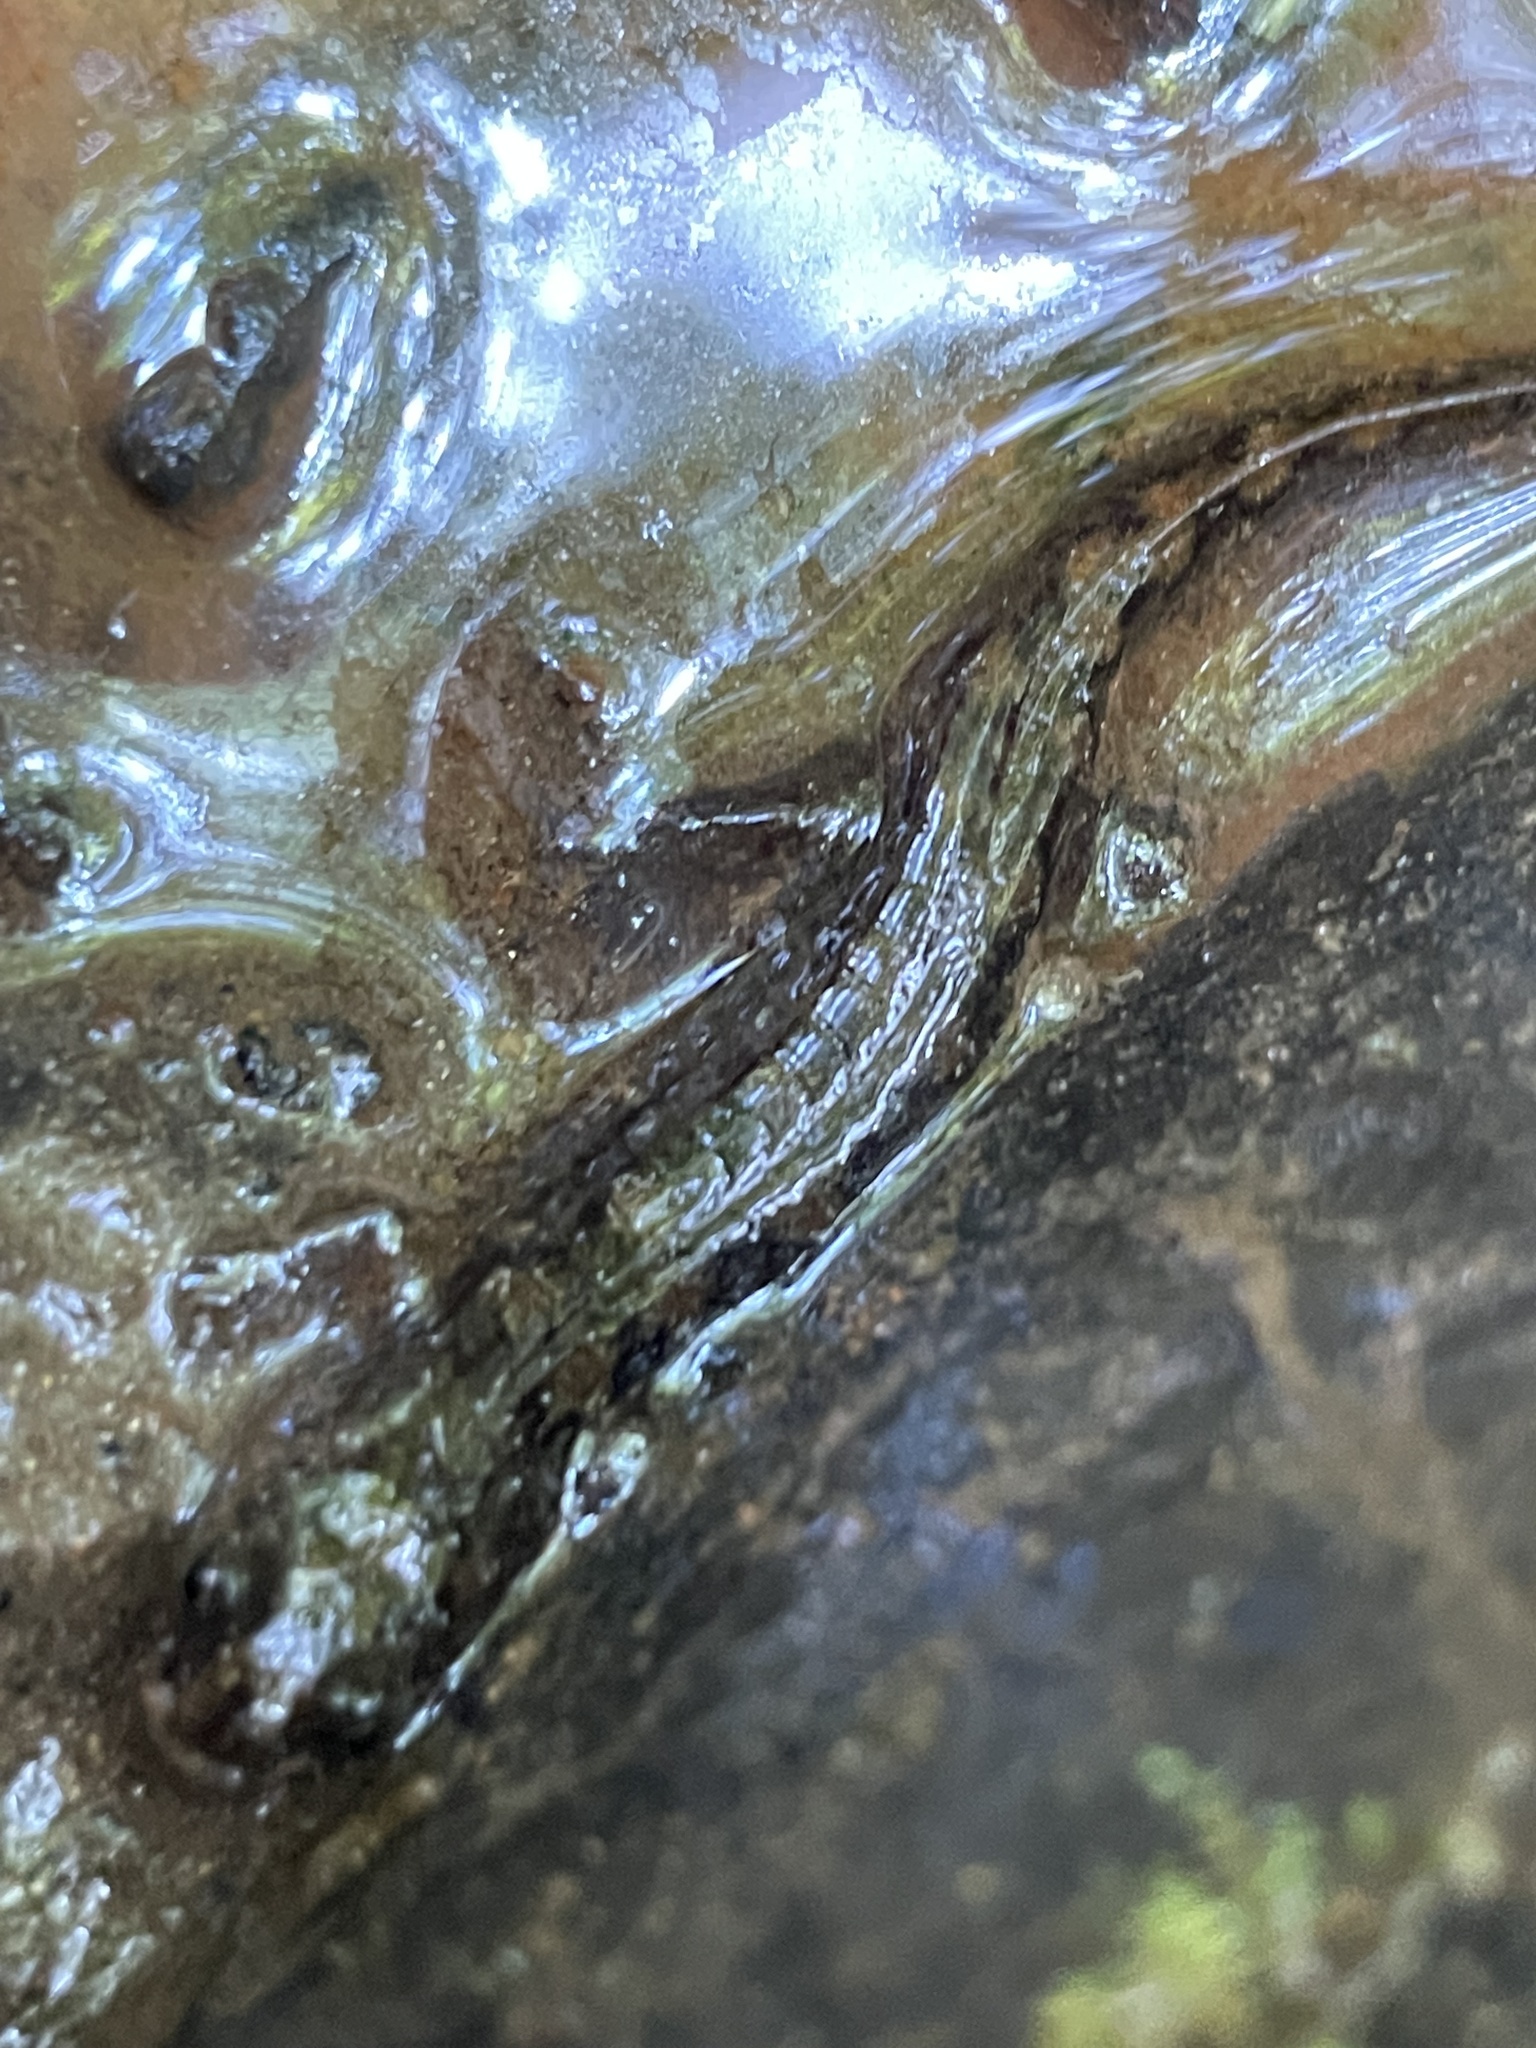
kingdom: Animalia
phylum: Chordata
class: Amphibia
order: Caudata
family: Plethodontidae
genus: Desmognathus
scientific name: Desmognathus monticola
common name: Seal salamander
